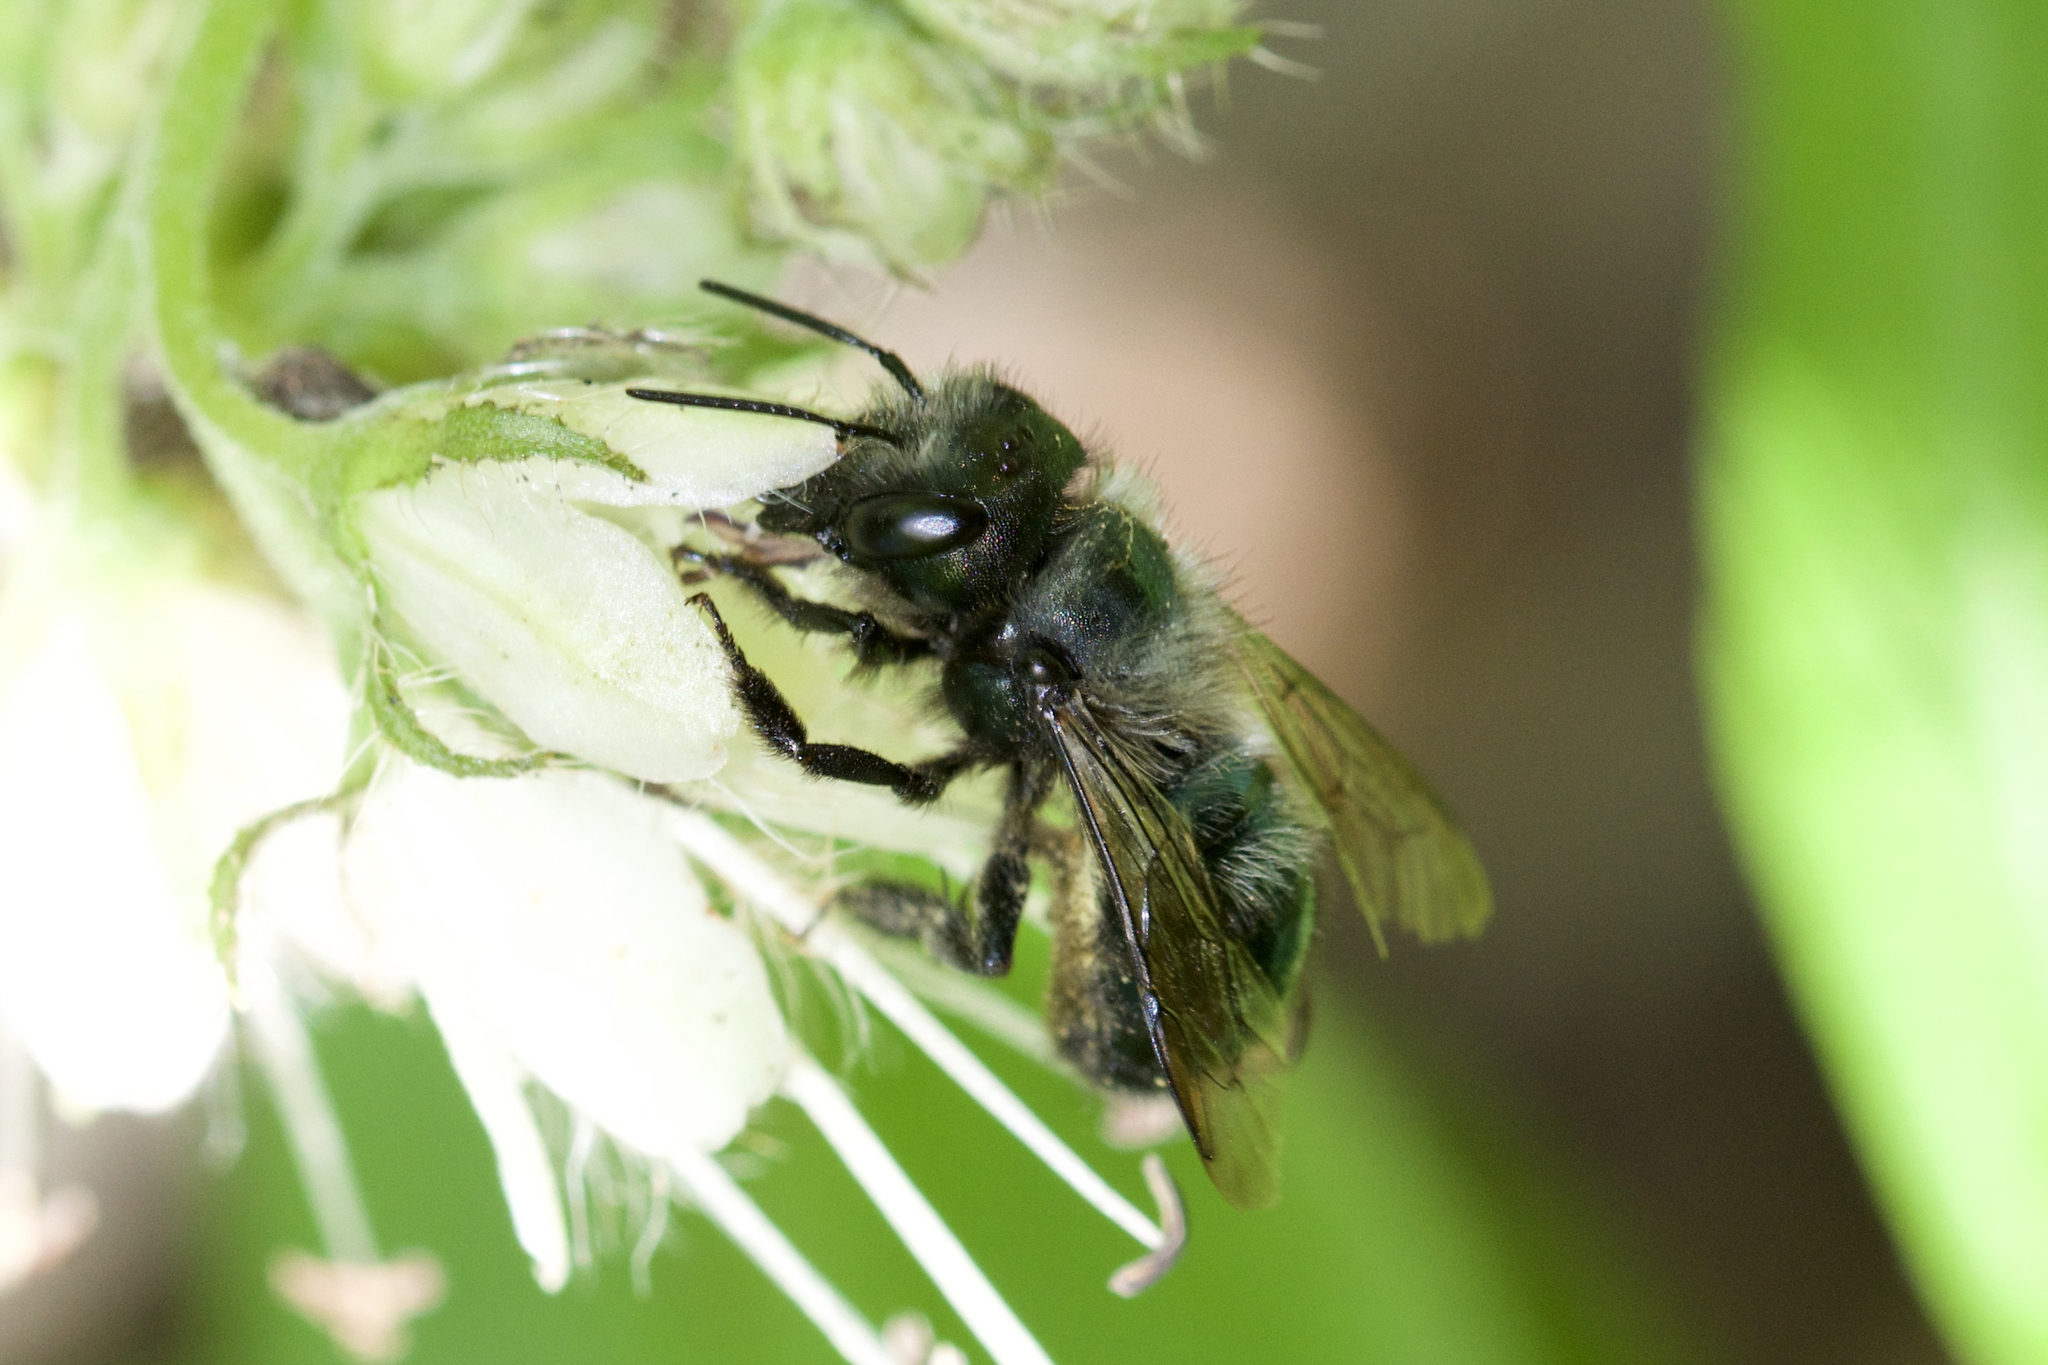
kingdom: Animalia
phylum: Arthropoda
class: Insecta
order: Hymenoptera
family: Megachilidae
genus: Osmia
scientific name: Osmia lignaria
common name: Blue orchard bee
